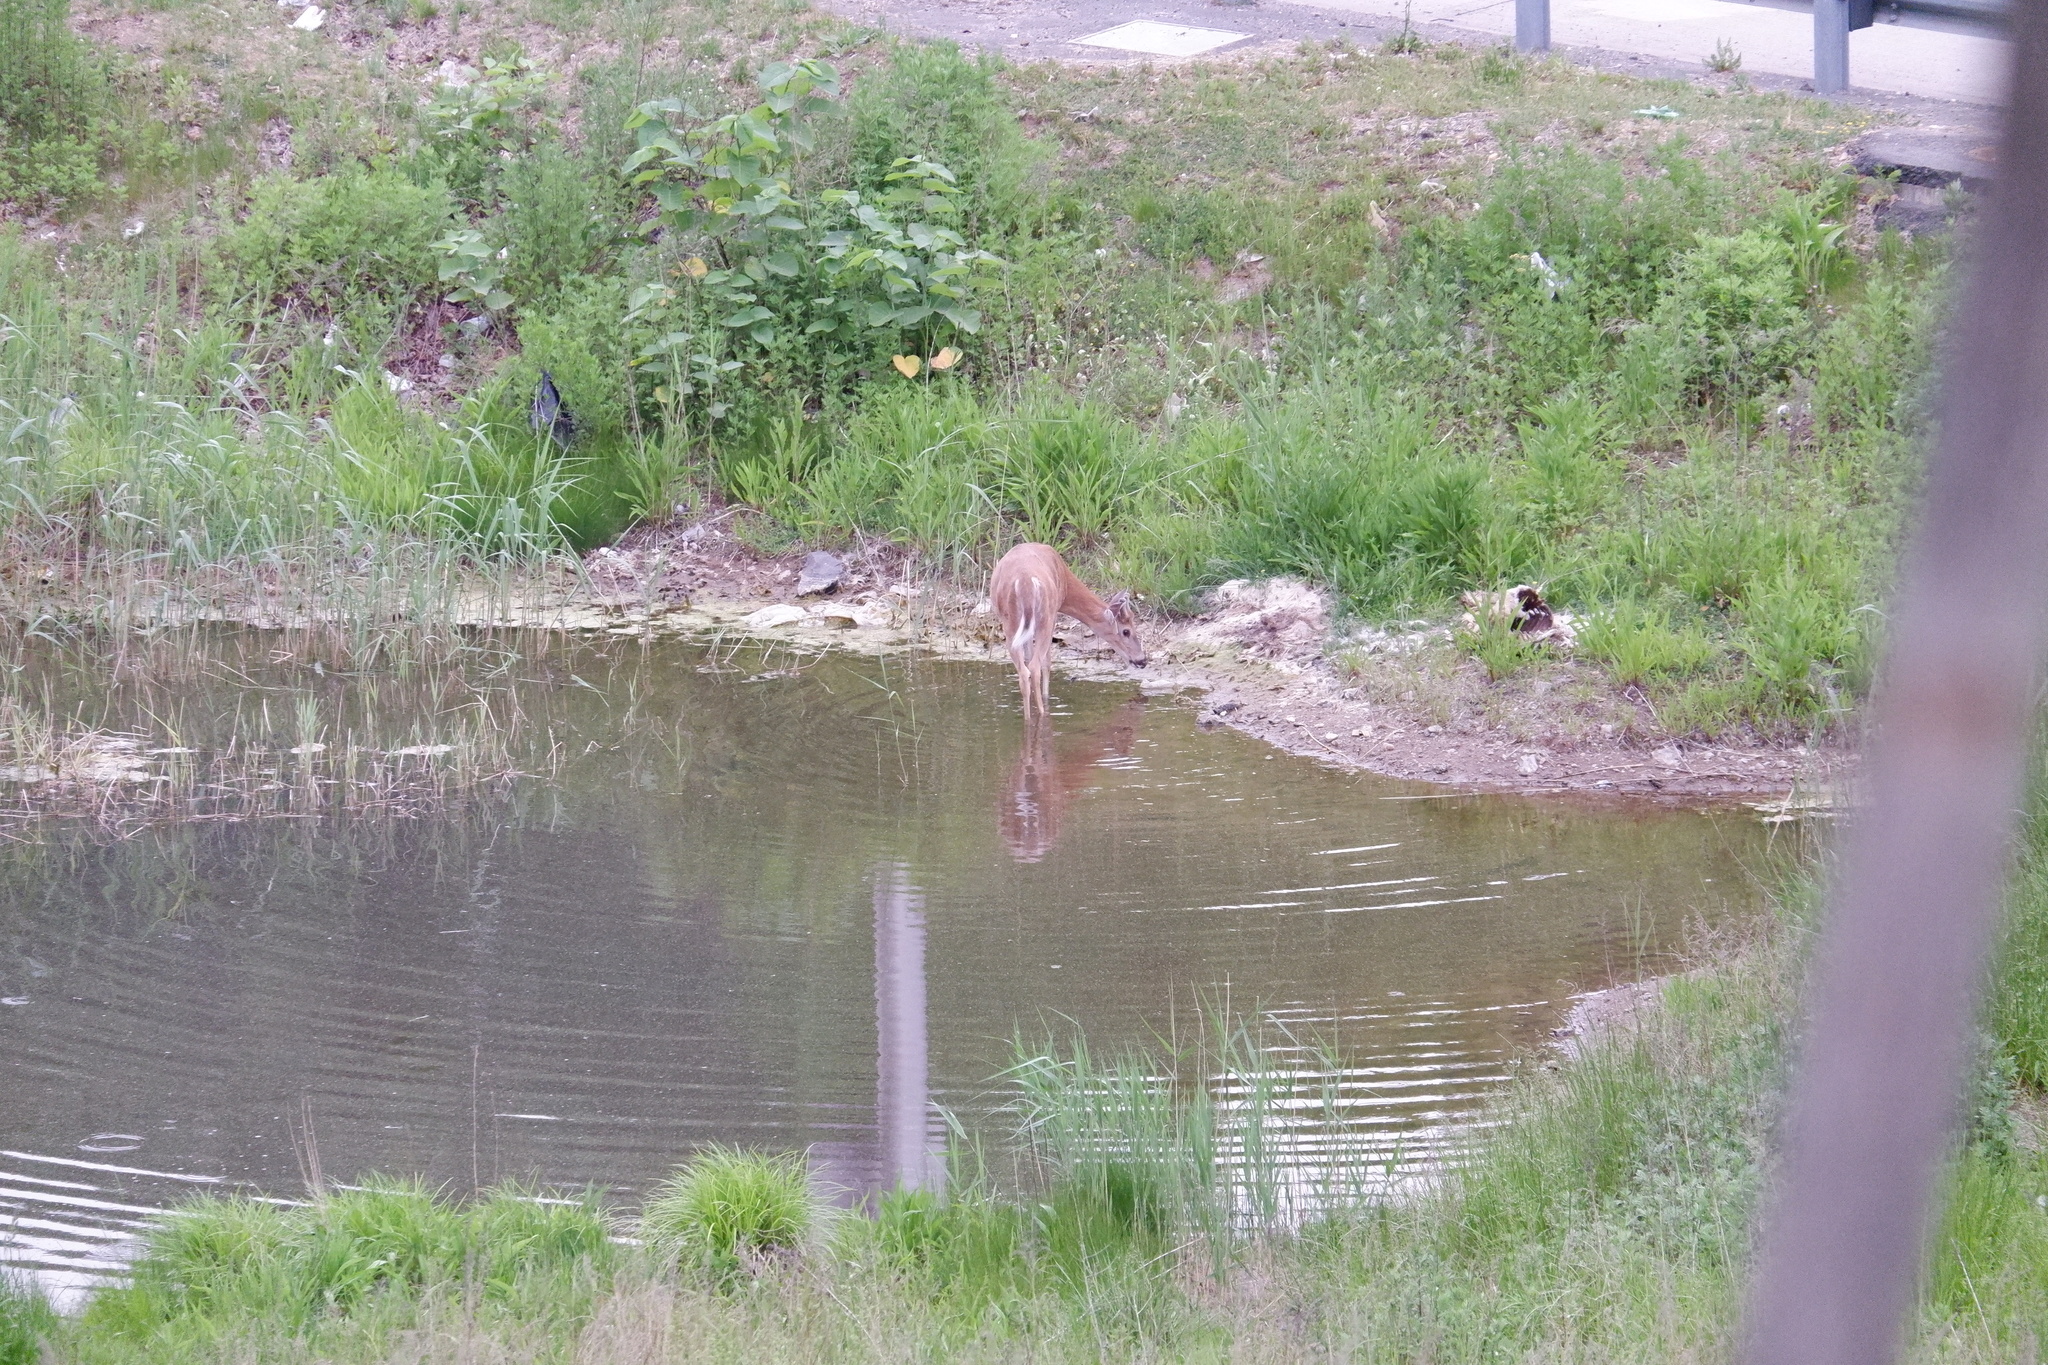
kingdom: Animalia
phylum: Chordata
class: Mammalia
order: Artiodactyla
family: Cervidae
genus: Odocoileus
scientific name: Odocoileus virginianus
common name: White-tailed deer
